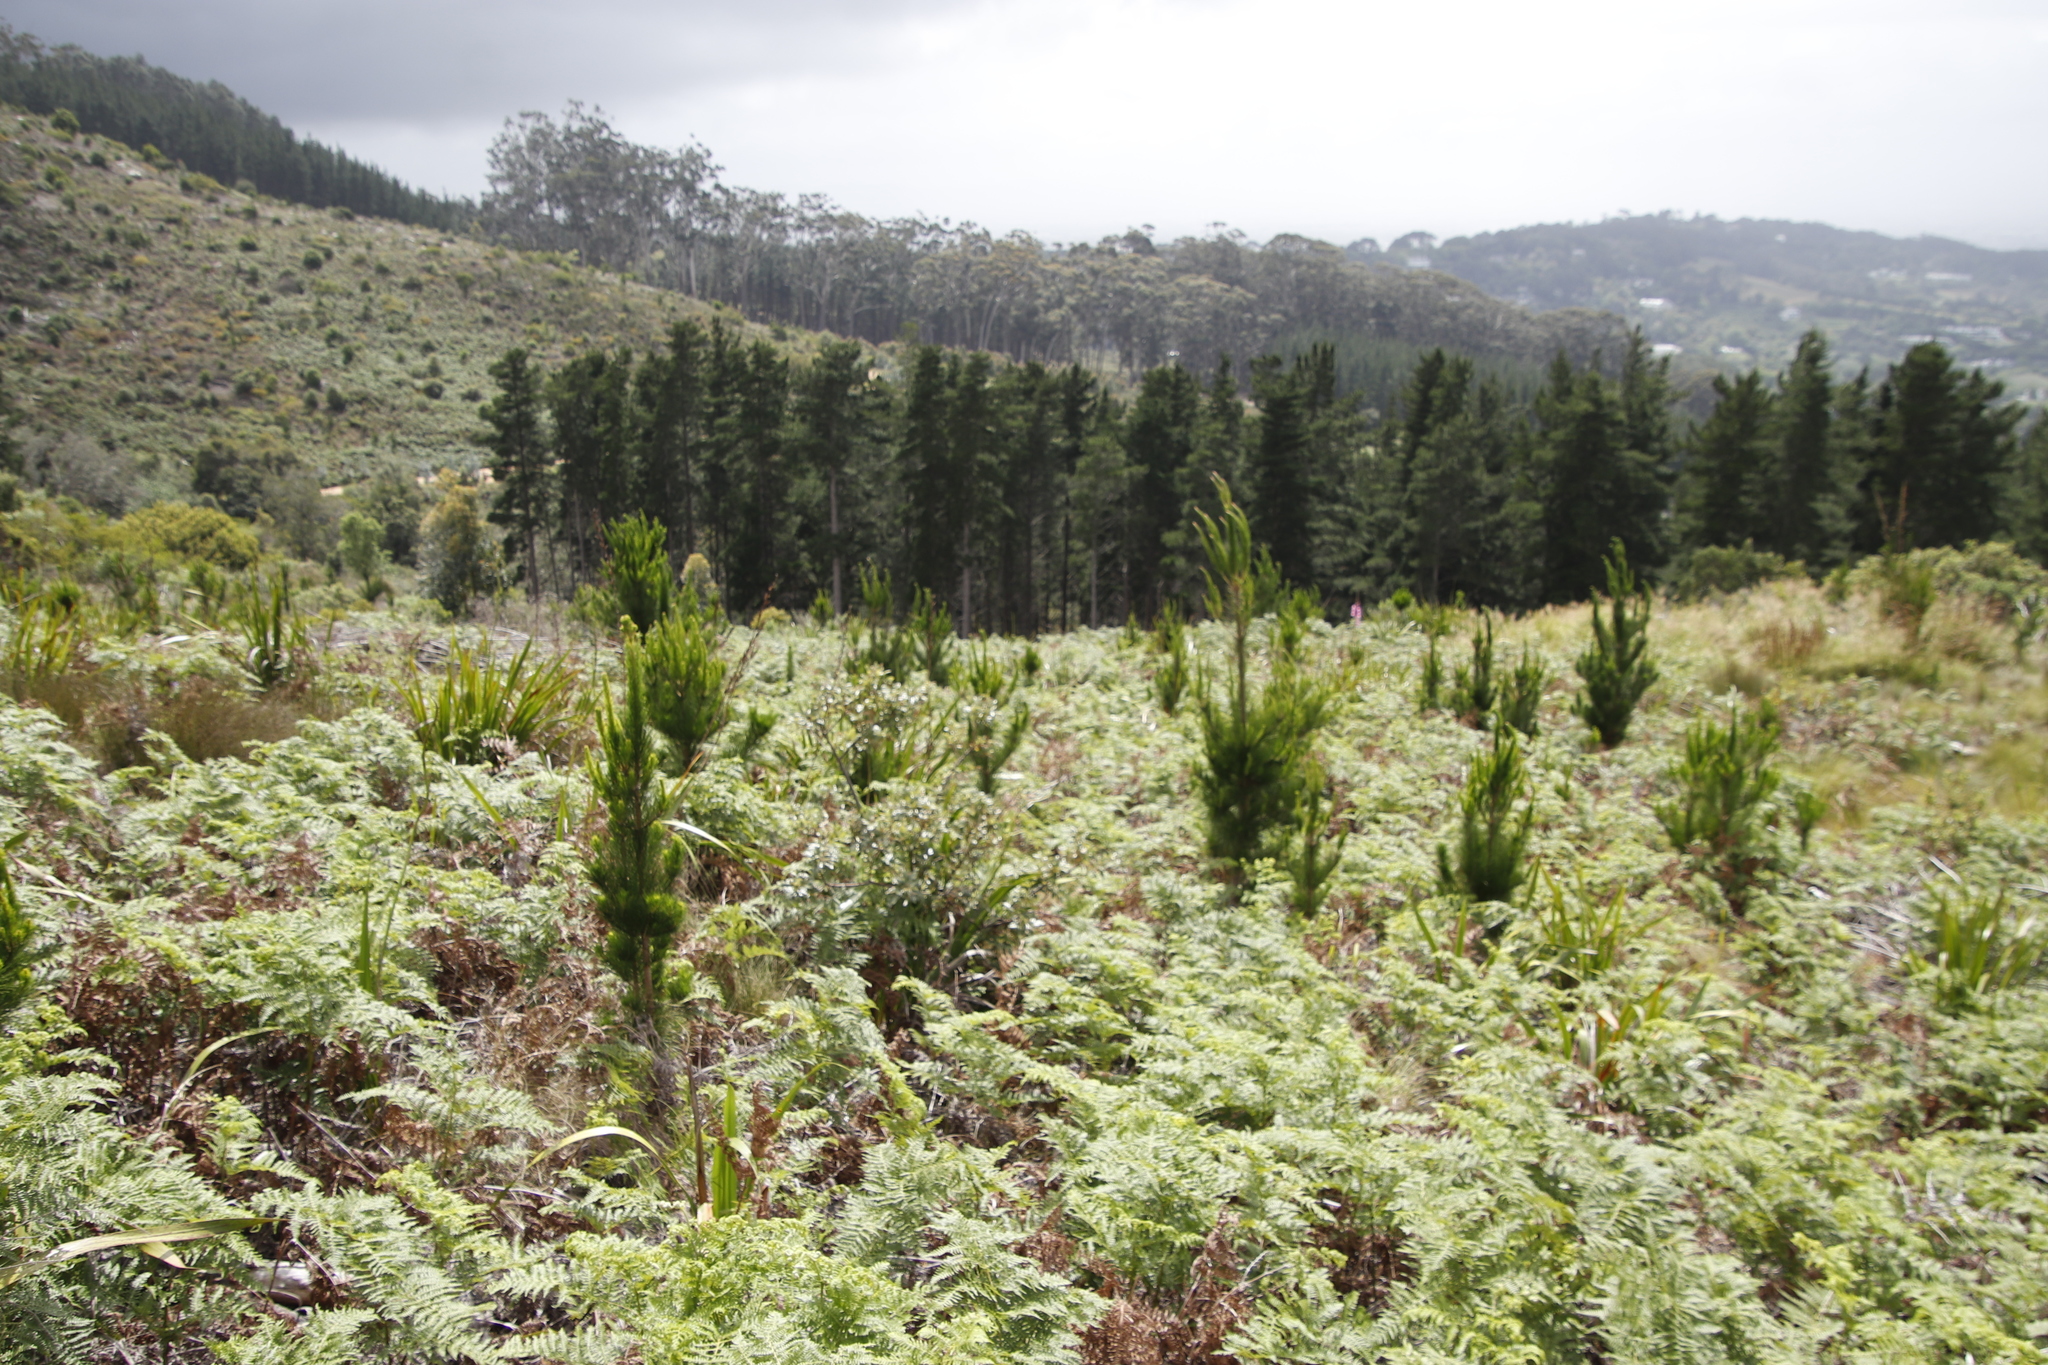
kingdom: Plantae
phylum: Tracheophyta
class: Pinopsida
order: Pinales
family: Pinaceae
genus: Pinus
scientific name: Pinus radiata
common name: Monterey pine
